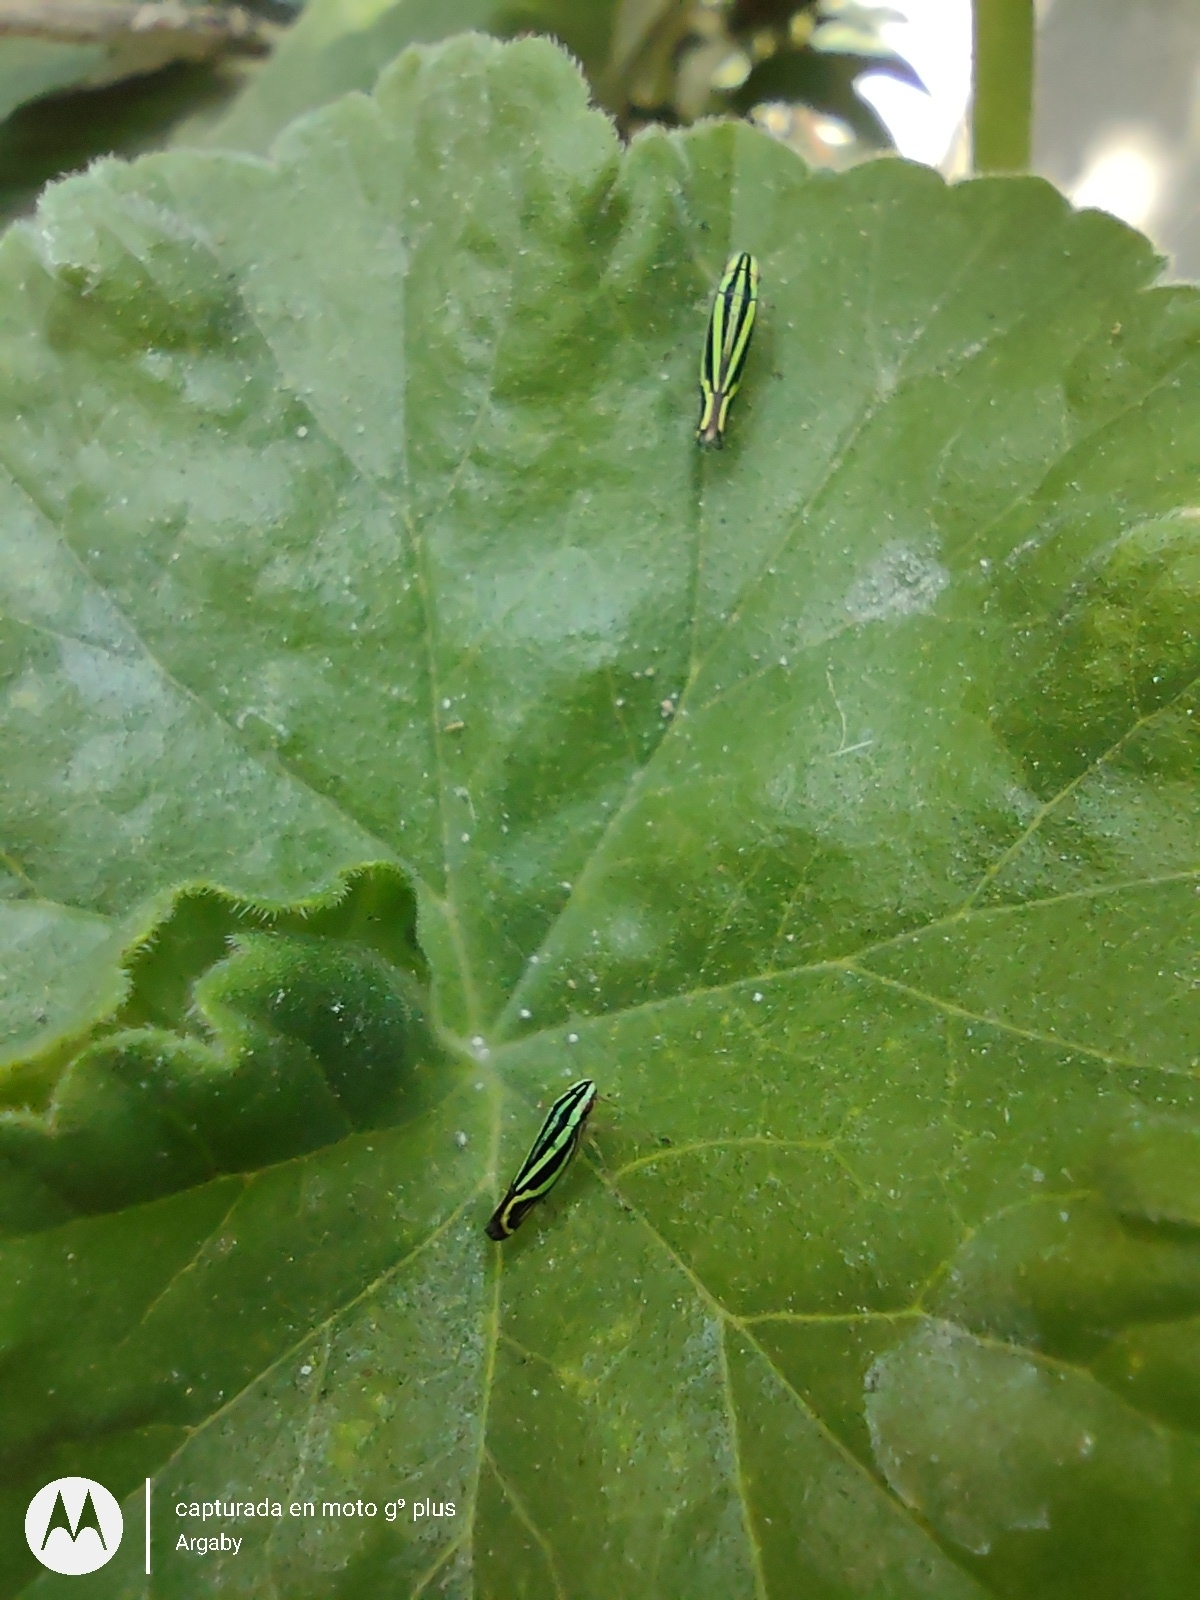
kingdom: Animalia
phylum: Arthropoda
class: Insecta
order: Hemiptera
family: Cicadellidae
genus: Sibovia
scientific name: Sibovia sagata
